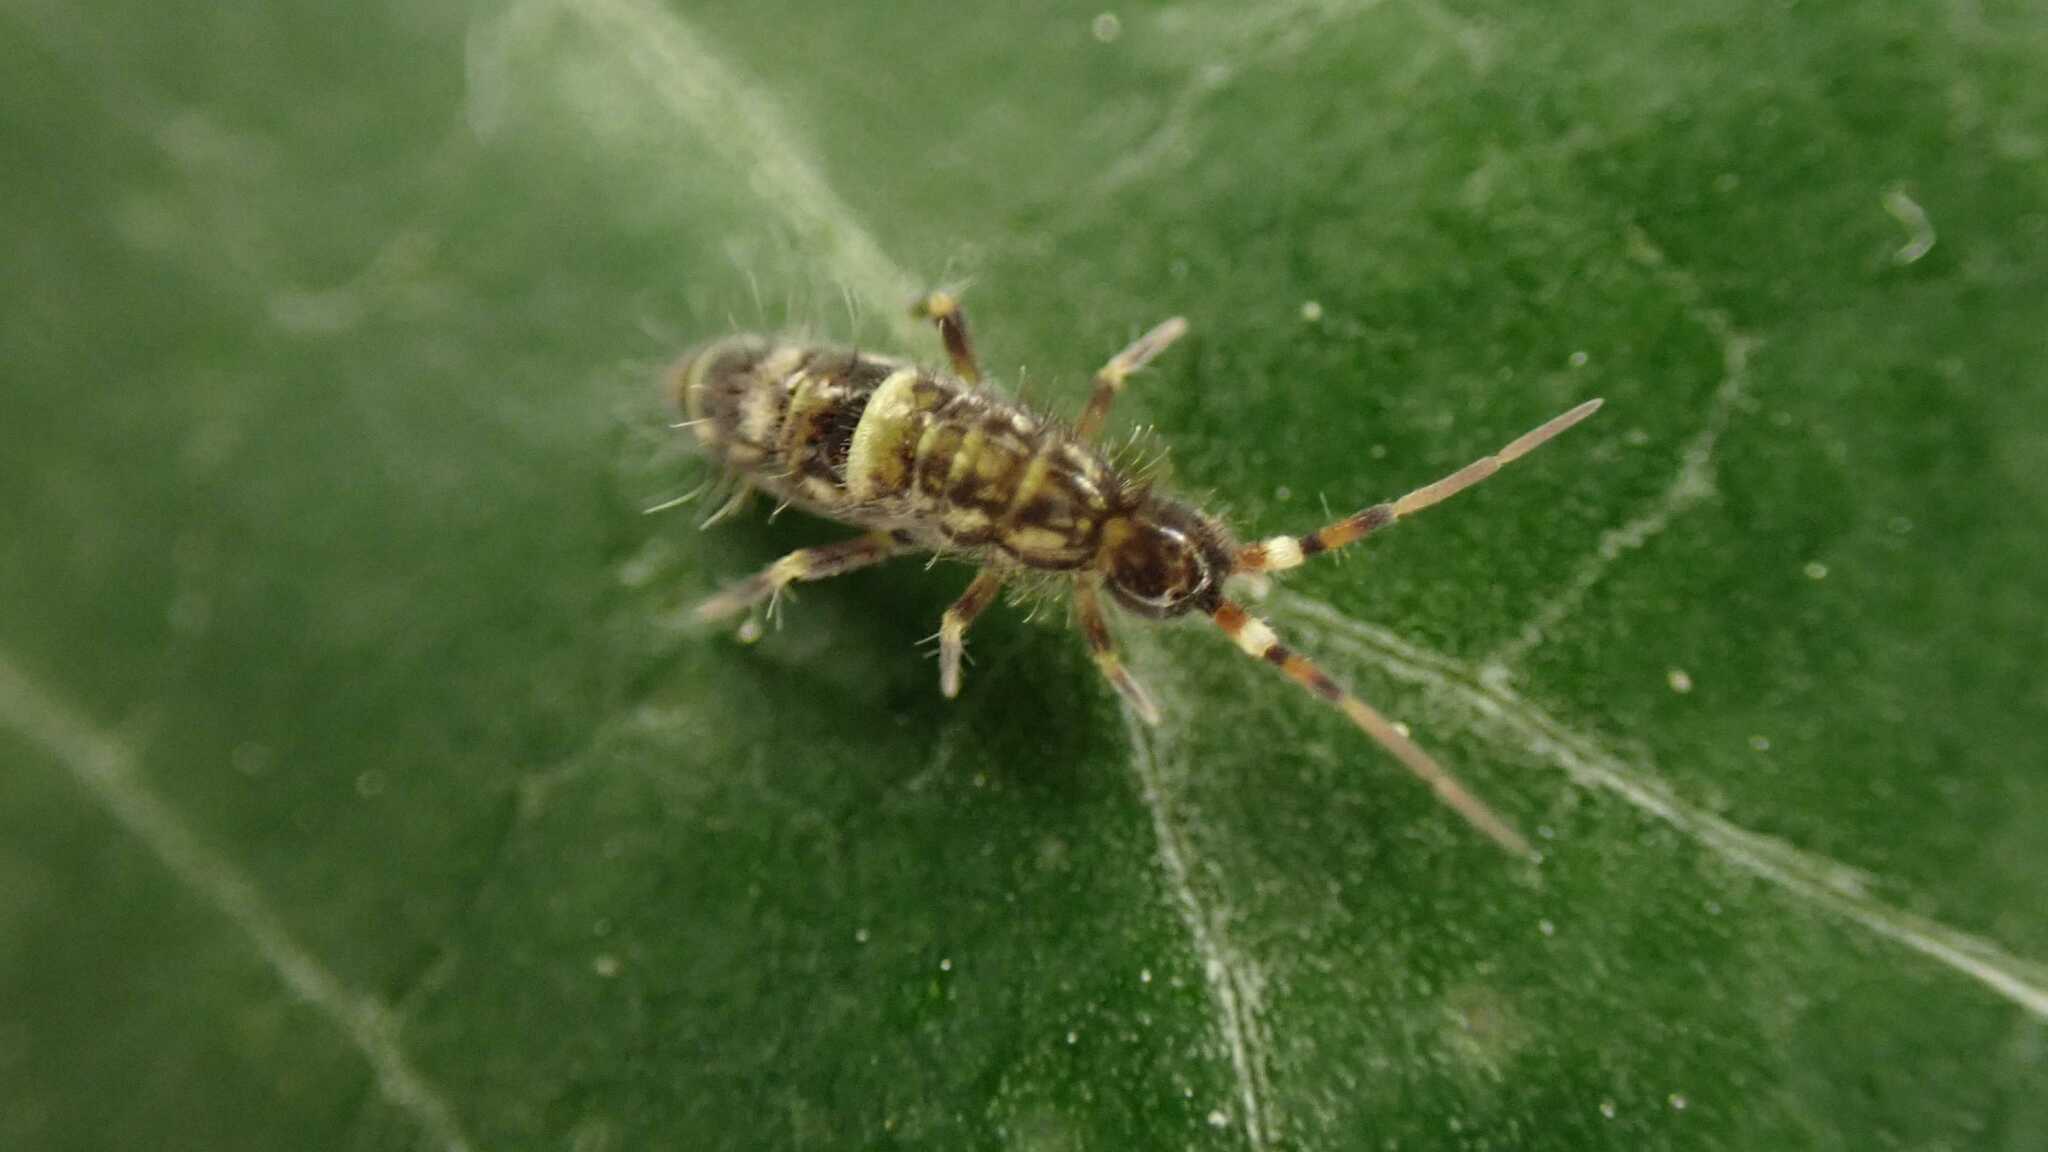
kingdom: Animalia
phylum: Arthropoda
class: Collembola
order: Entomobryomorpha
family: Orchesellidae
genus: Orchesella
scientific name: Orchesella cincta
